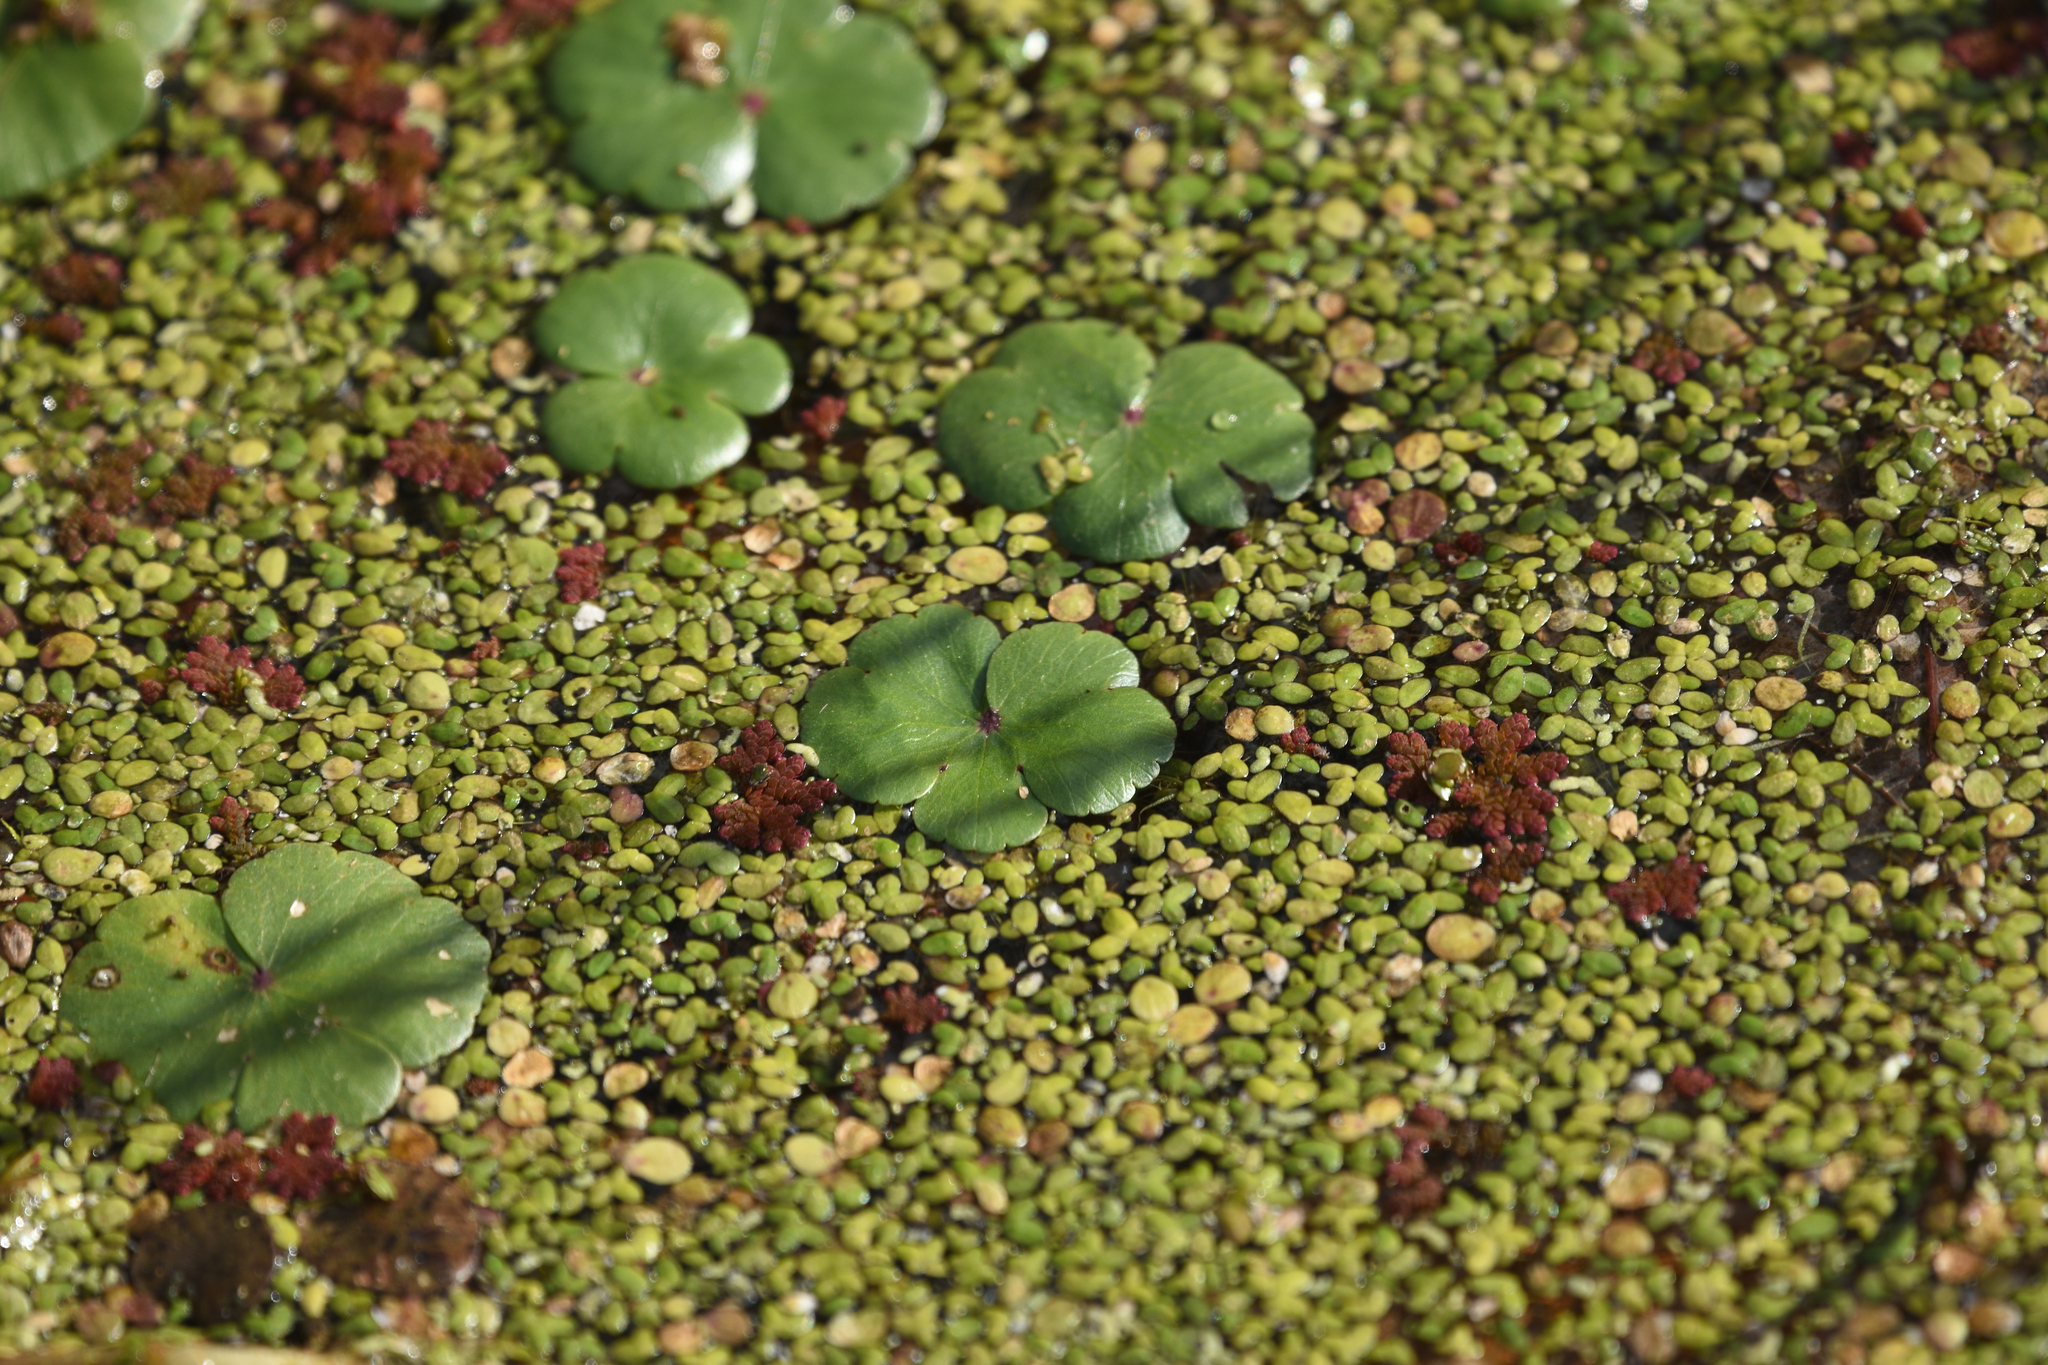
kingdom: Plantae
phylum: Tracheophyta
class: Magnoliopsida
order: Apiales
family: Araliaceae
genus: Hydrocotyle
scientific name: Hydrocotyle ranunculoides
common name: Floating pennywort
